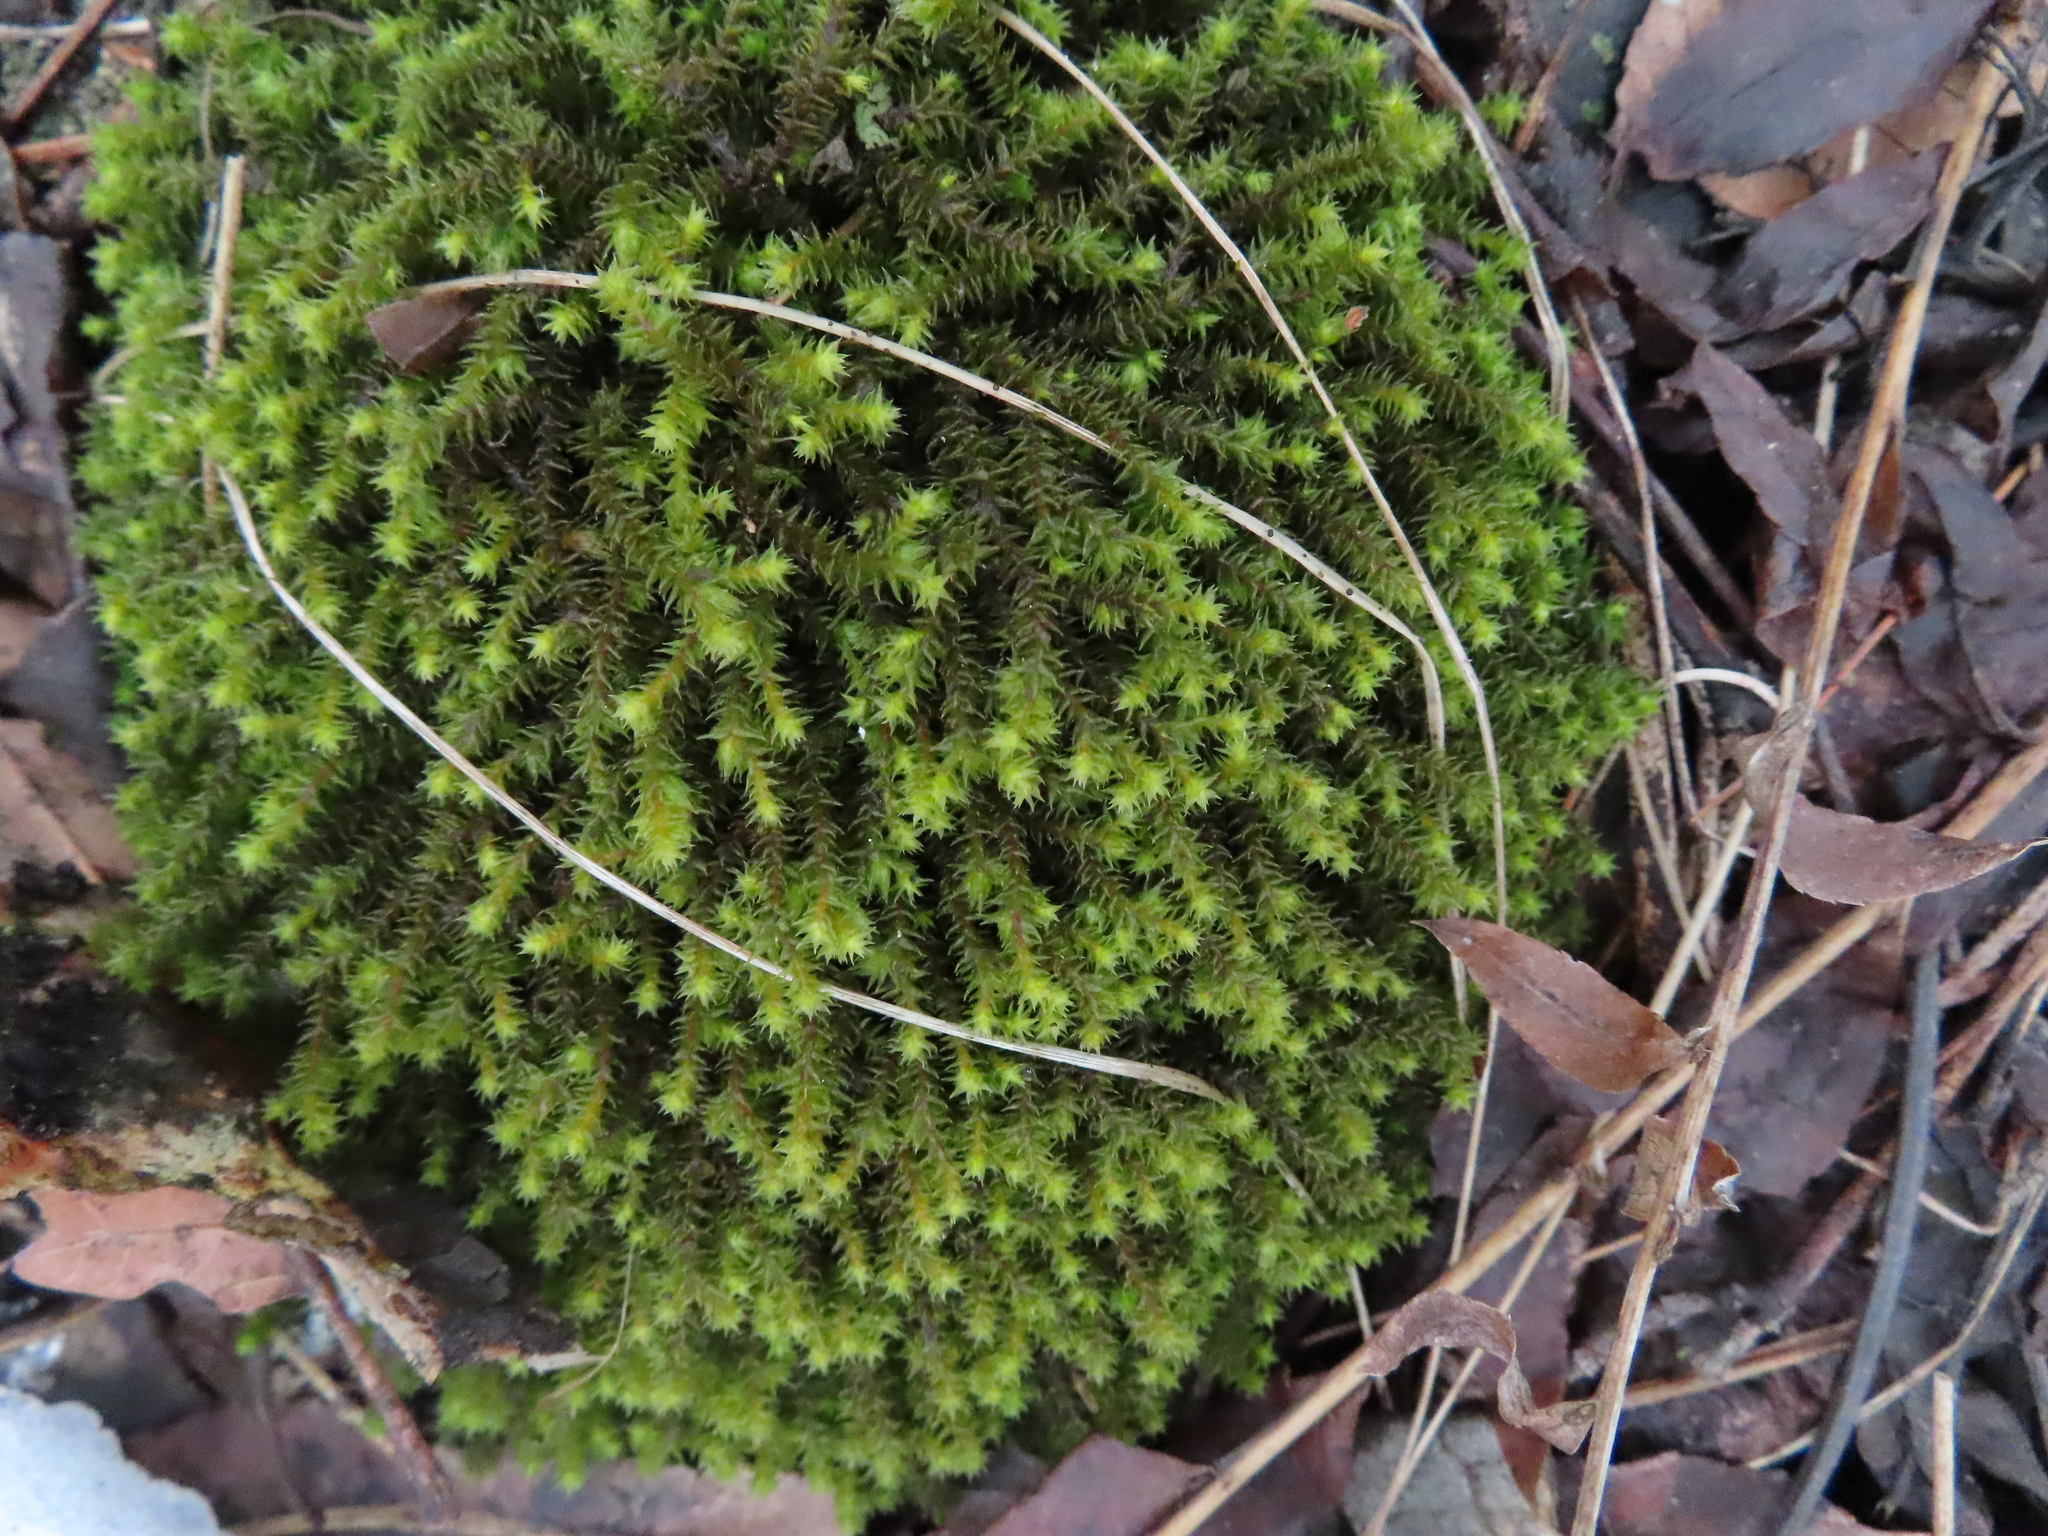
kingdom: Plantae
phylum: Bryophyta
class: Bryopsida
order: Hedwigiales
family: Hedwigiaceae
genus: Hedwigia
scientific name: Hedwigia ciliata
